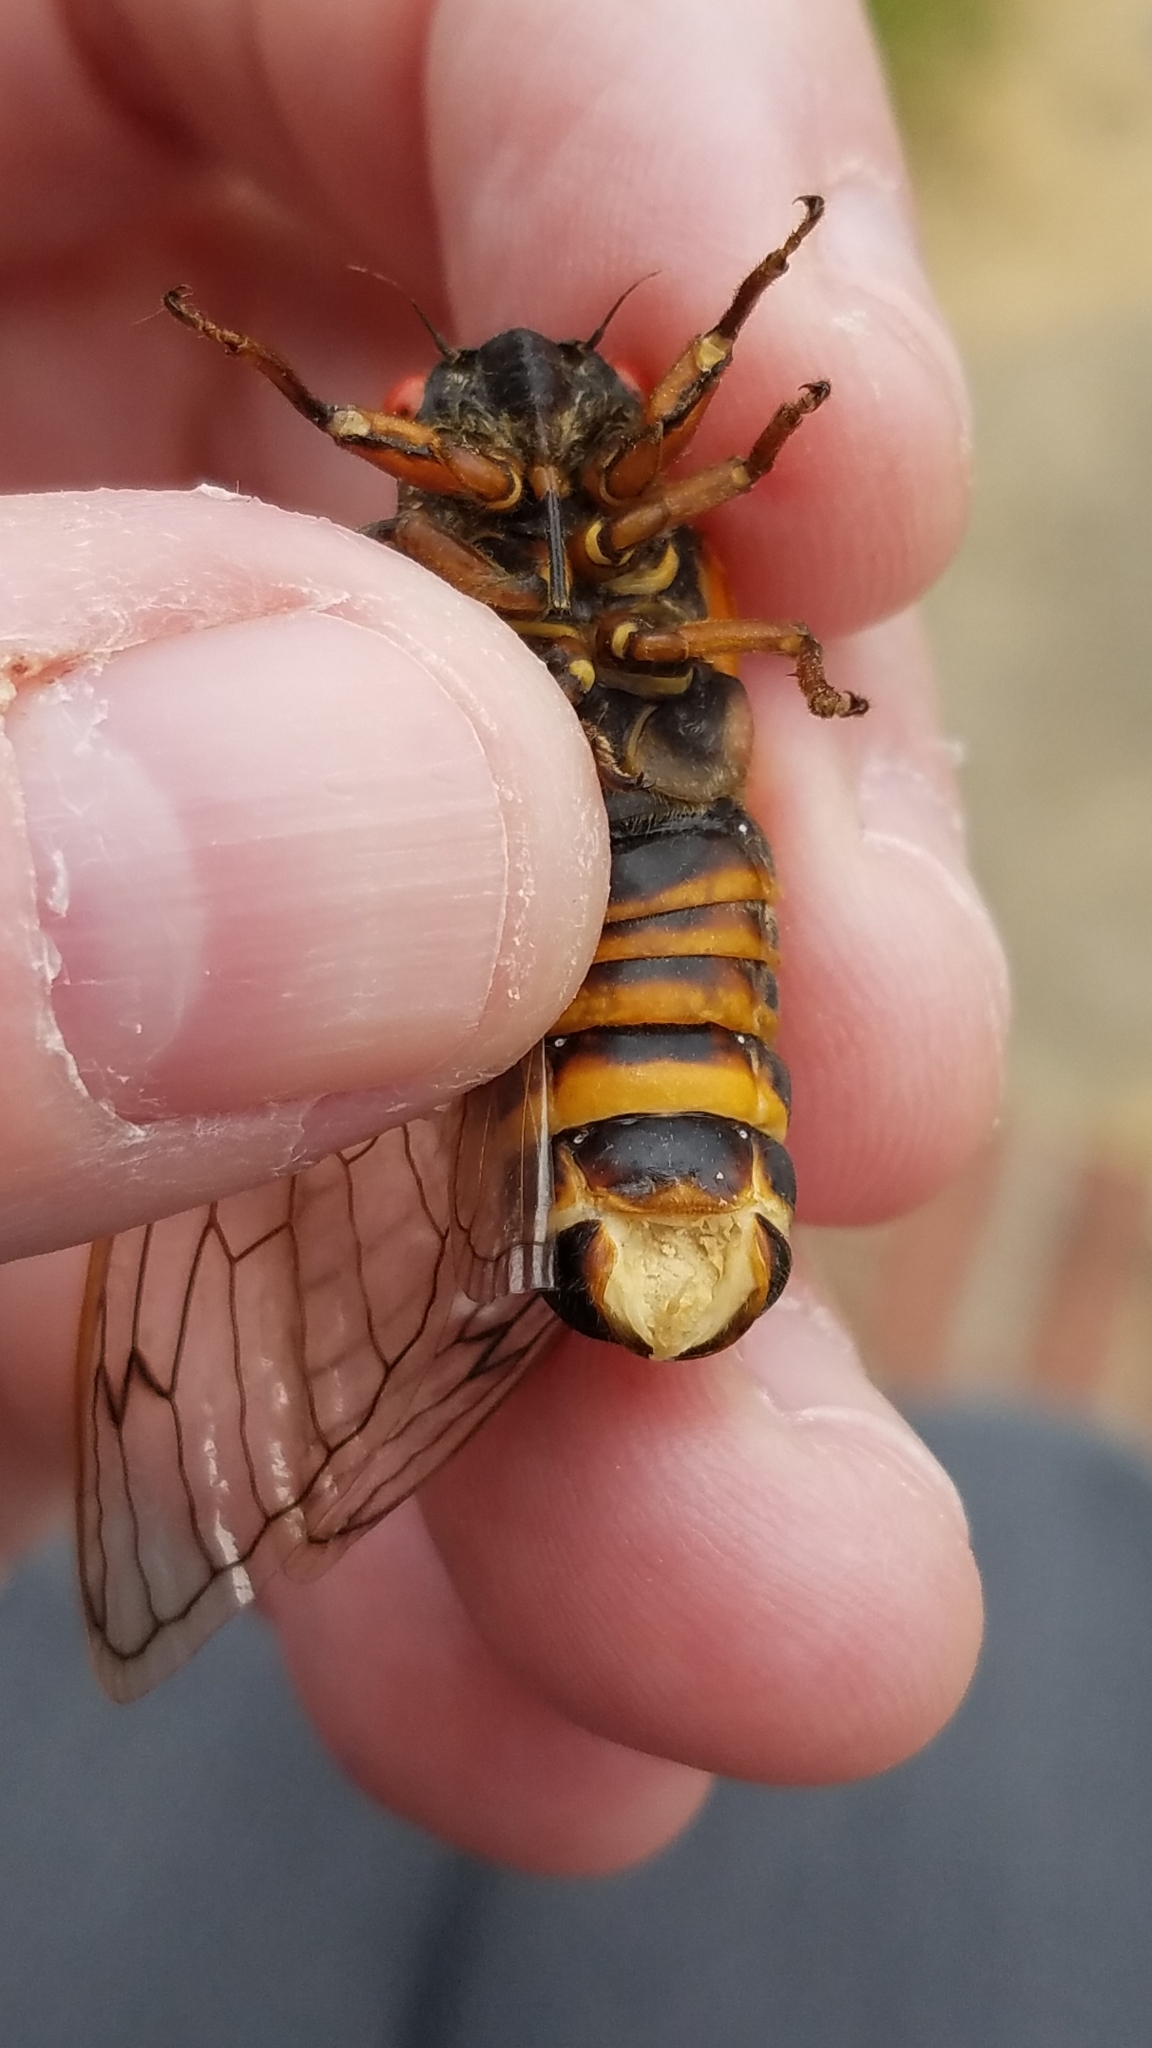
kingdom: Fungi
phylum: Entomophthoromycota
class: Entomophthoromycetes
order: Entomophthorales
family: Entomophthoraceae
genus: Massospora
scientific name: Massospora cicadina
